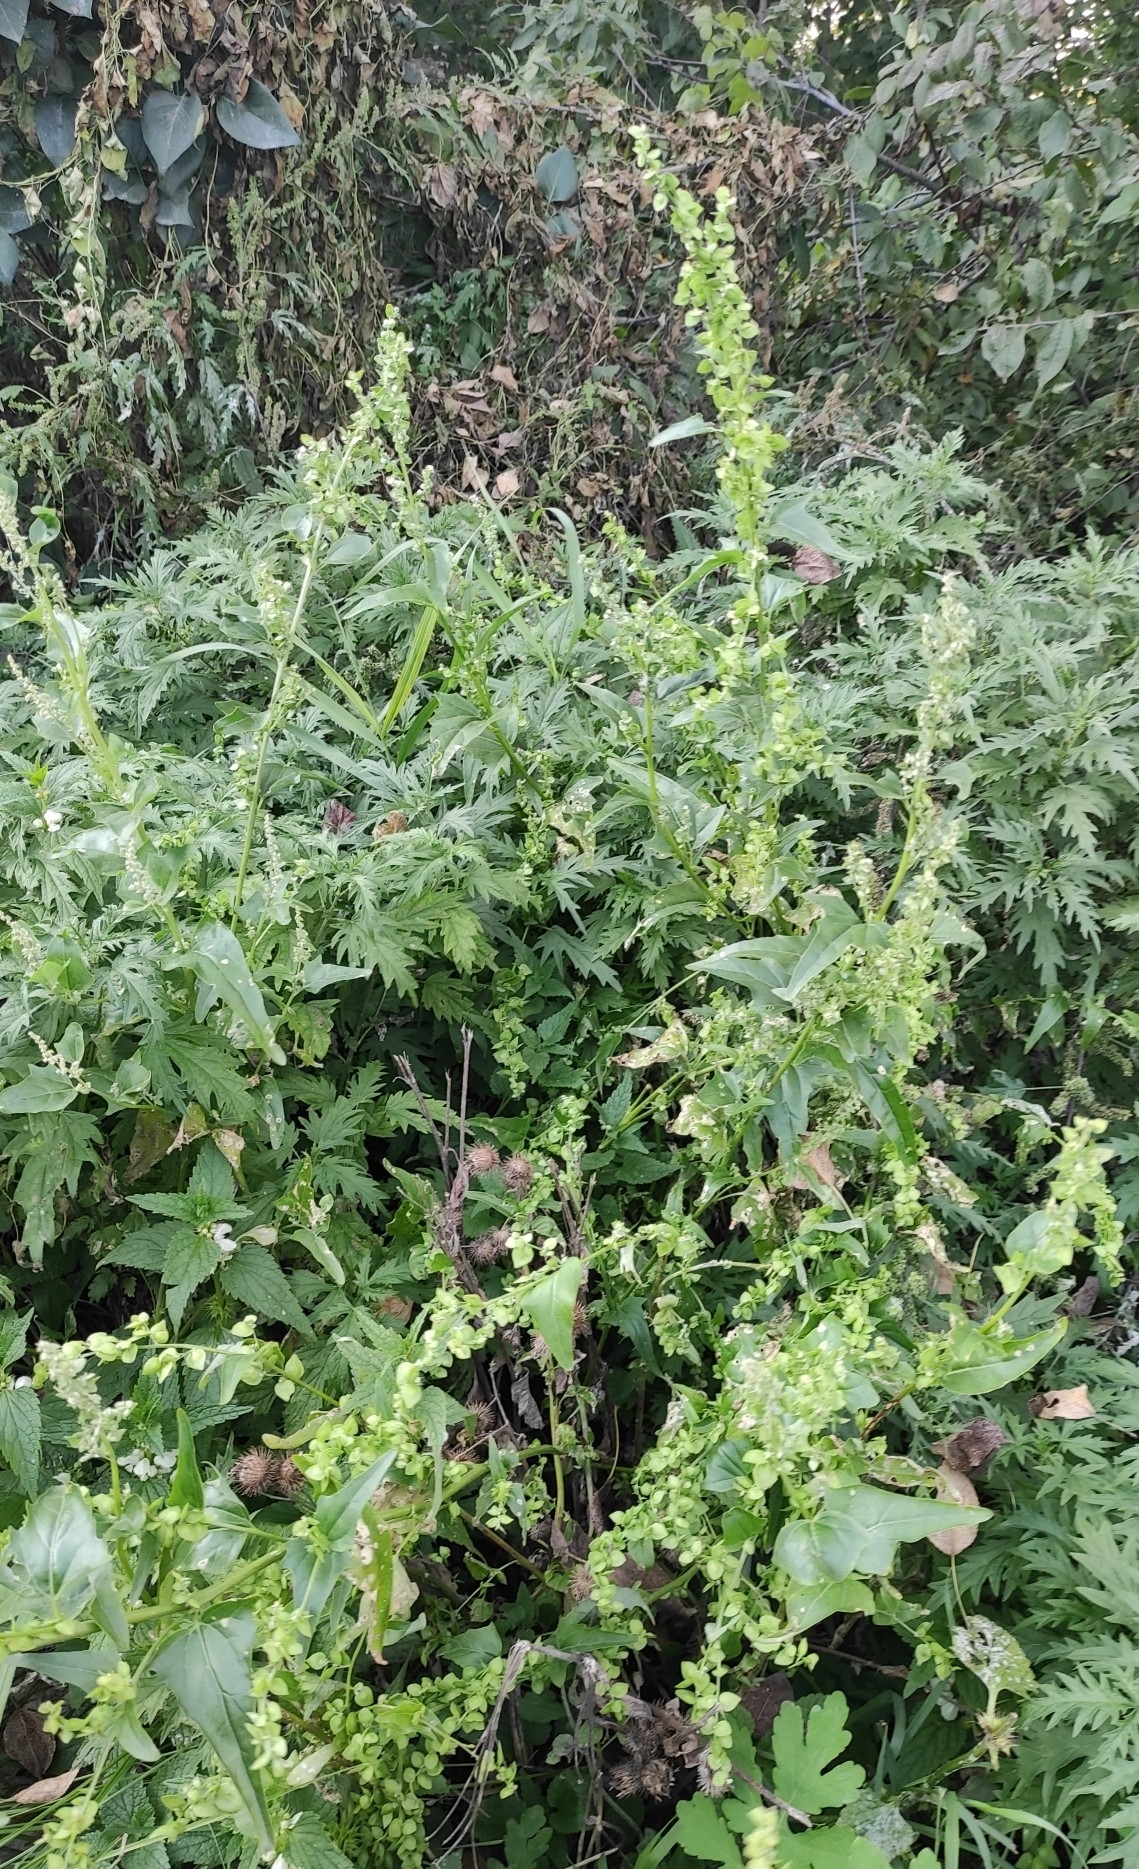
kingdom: Plantae
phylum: Tracheophyta
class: Magnoliopsida
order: Caryophyllales
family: Amaranthaceae
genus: Atriplex
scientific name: Atriplex sagittata
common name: Purple orache
